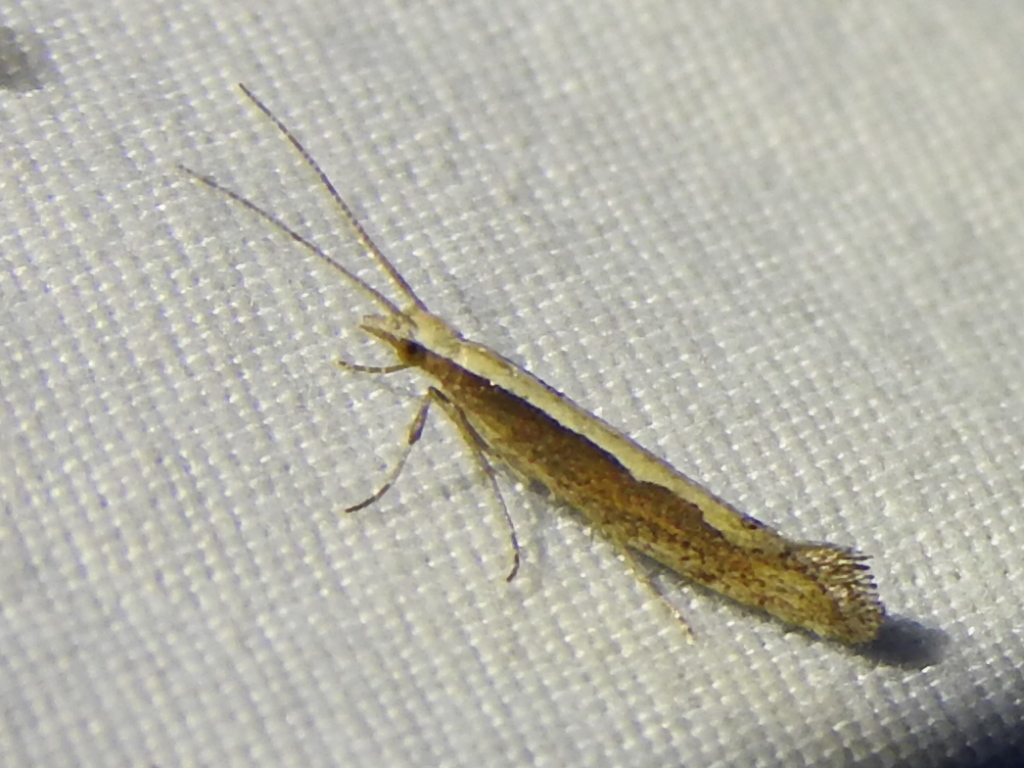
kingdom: Animalia
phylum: Arthropoda
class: Insecta
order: Lepidoptera
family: Plutellidae
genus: Plutella
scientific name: Plutella xylostella
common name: Diamond-back moth
